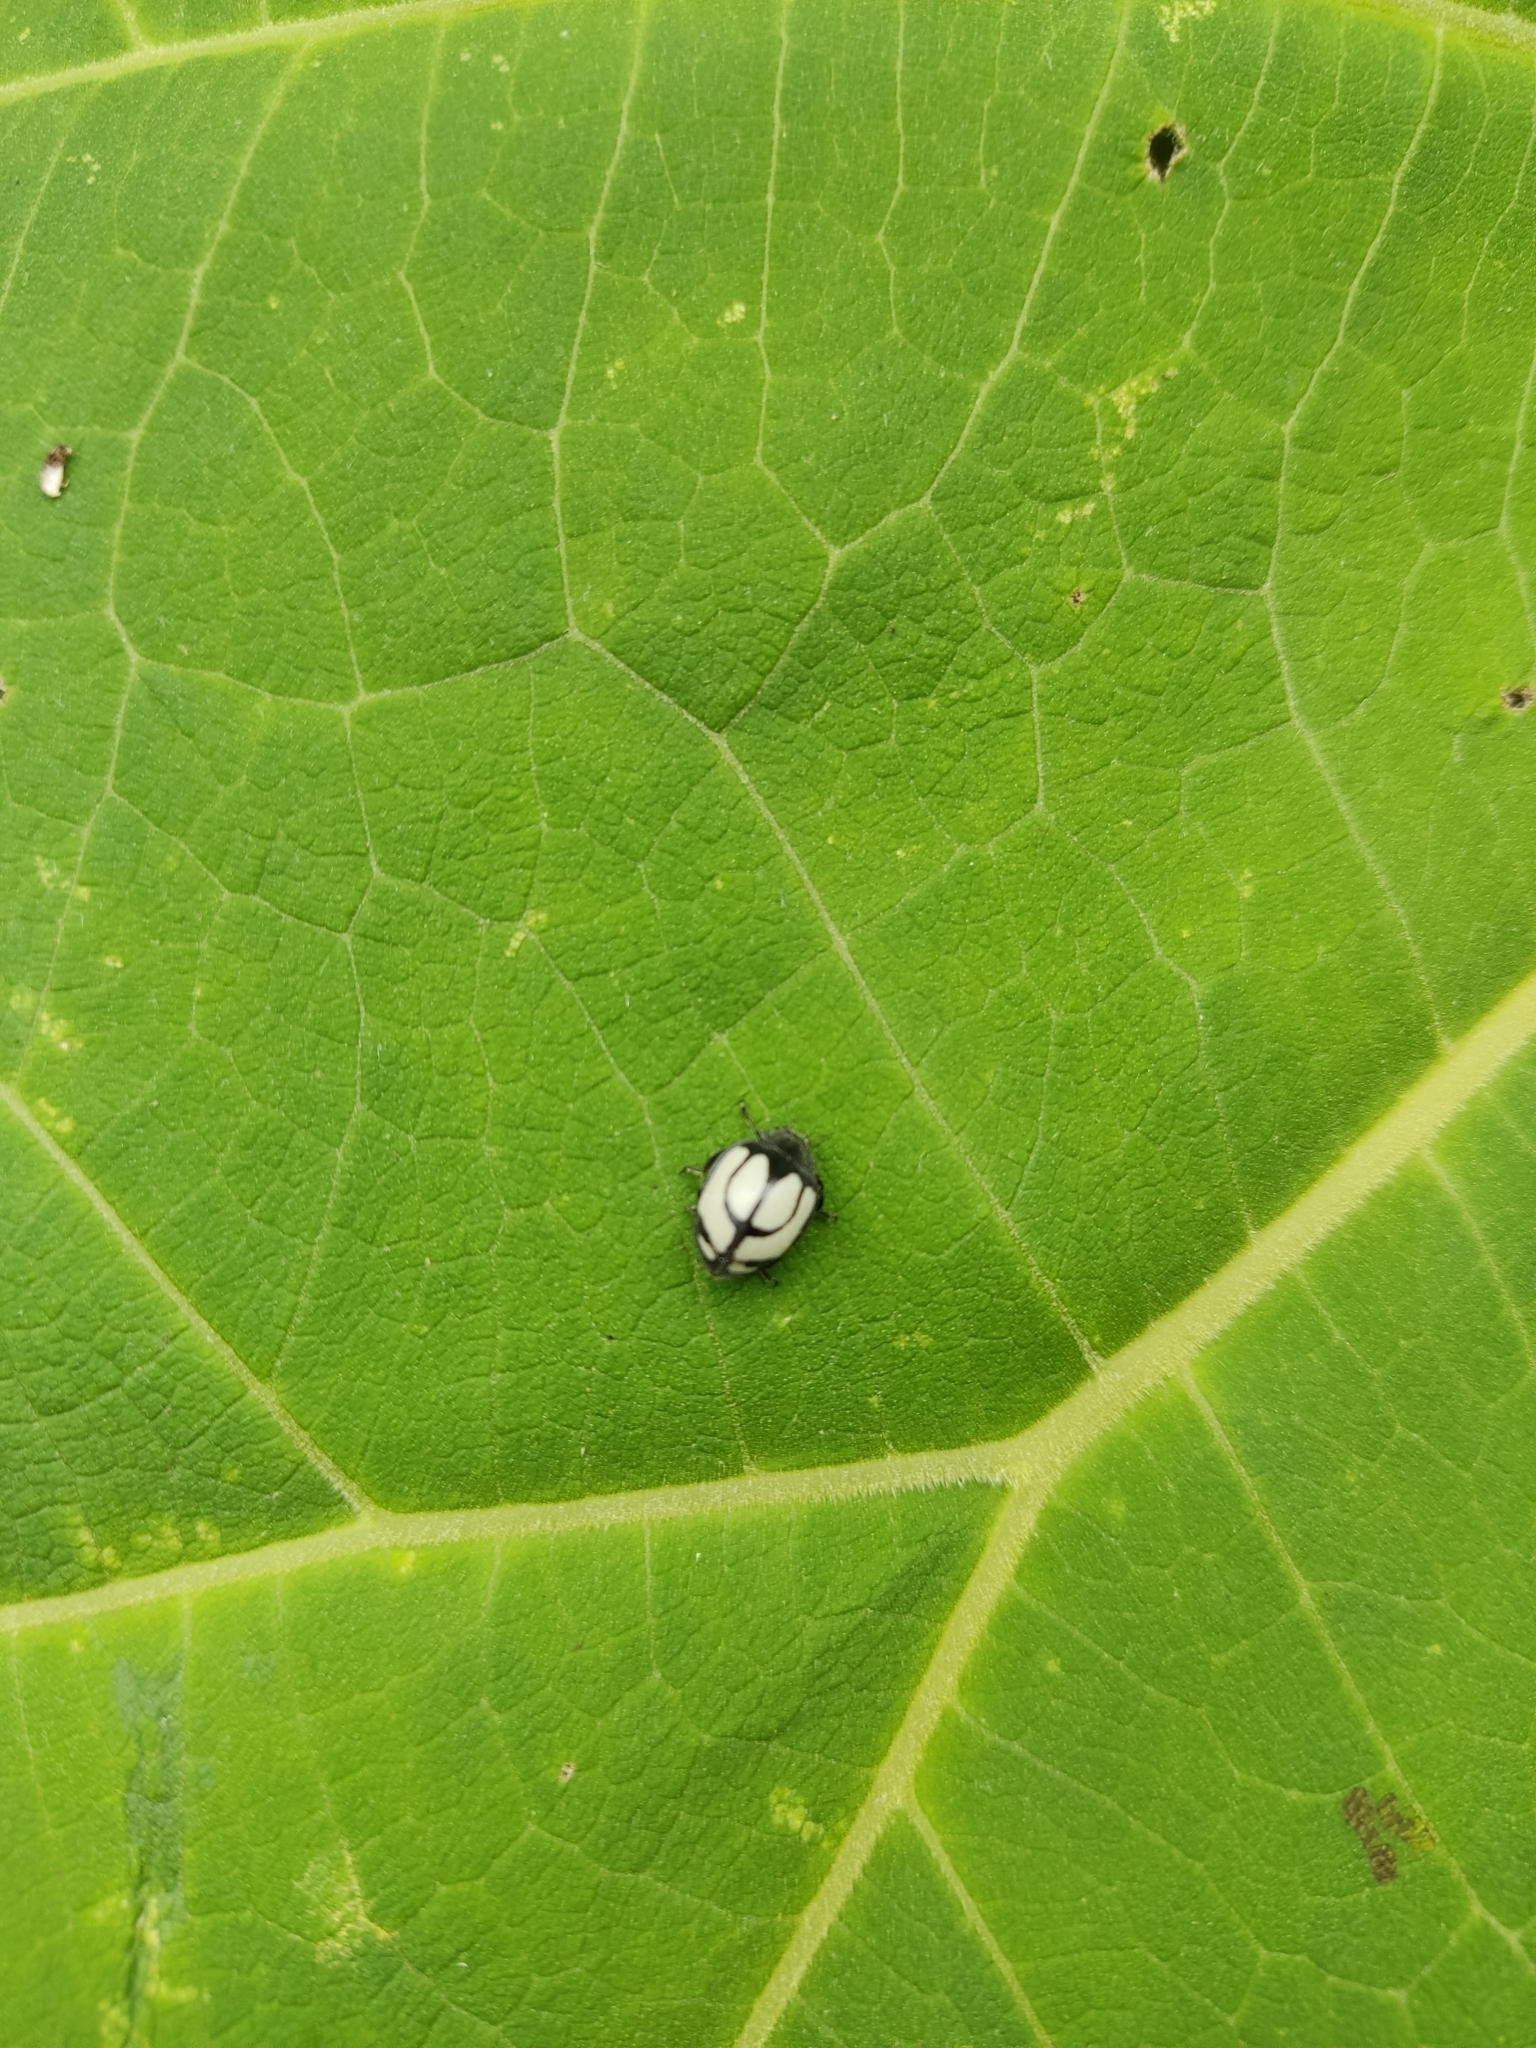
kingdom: Animalia
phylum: Arthropoda
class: Insecta
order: Coleoptera
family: Coccinellidae
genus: Epilachna
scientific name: Epilachna
